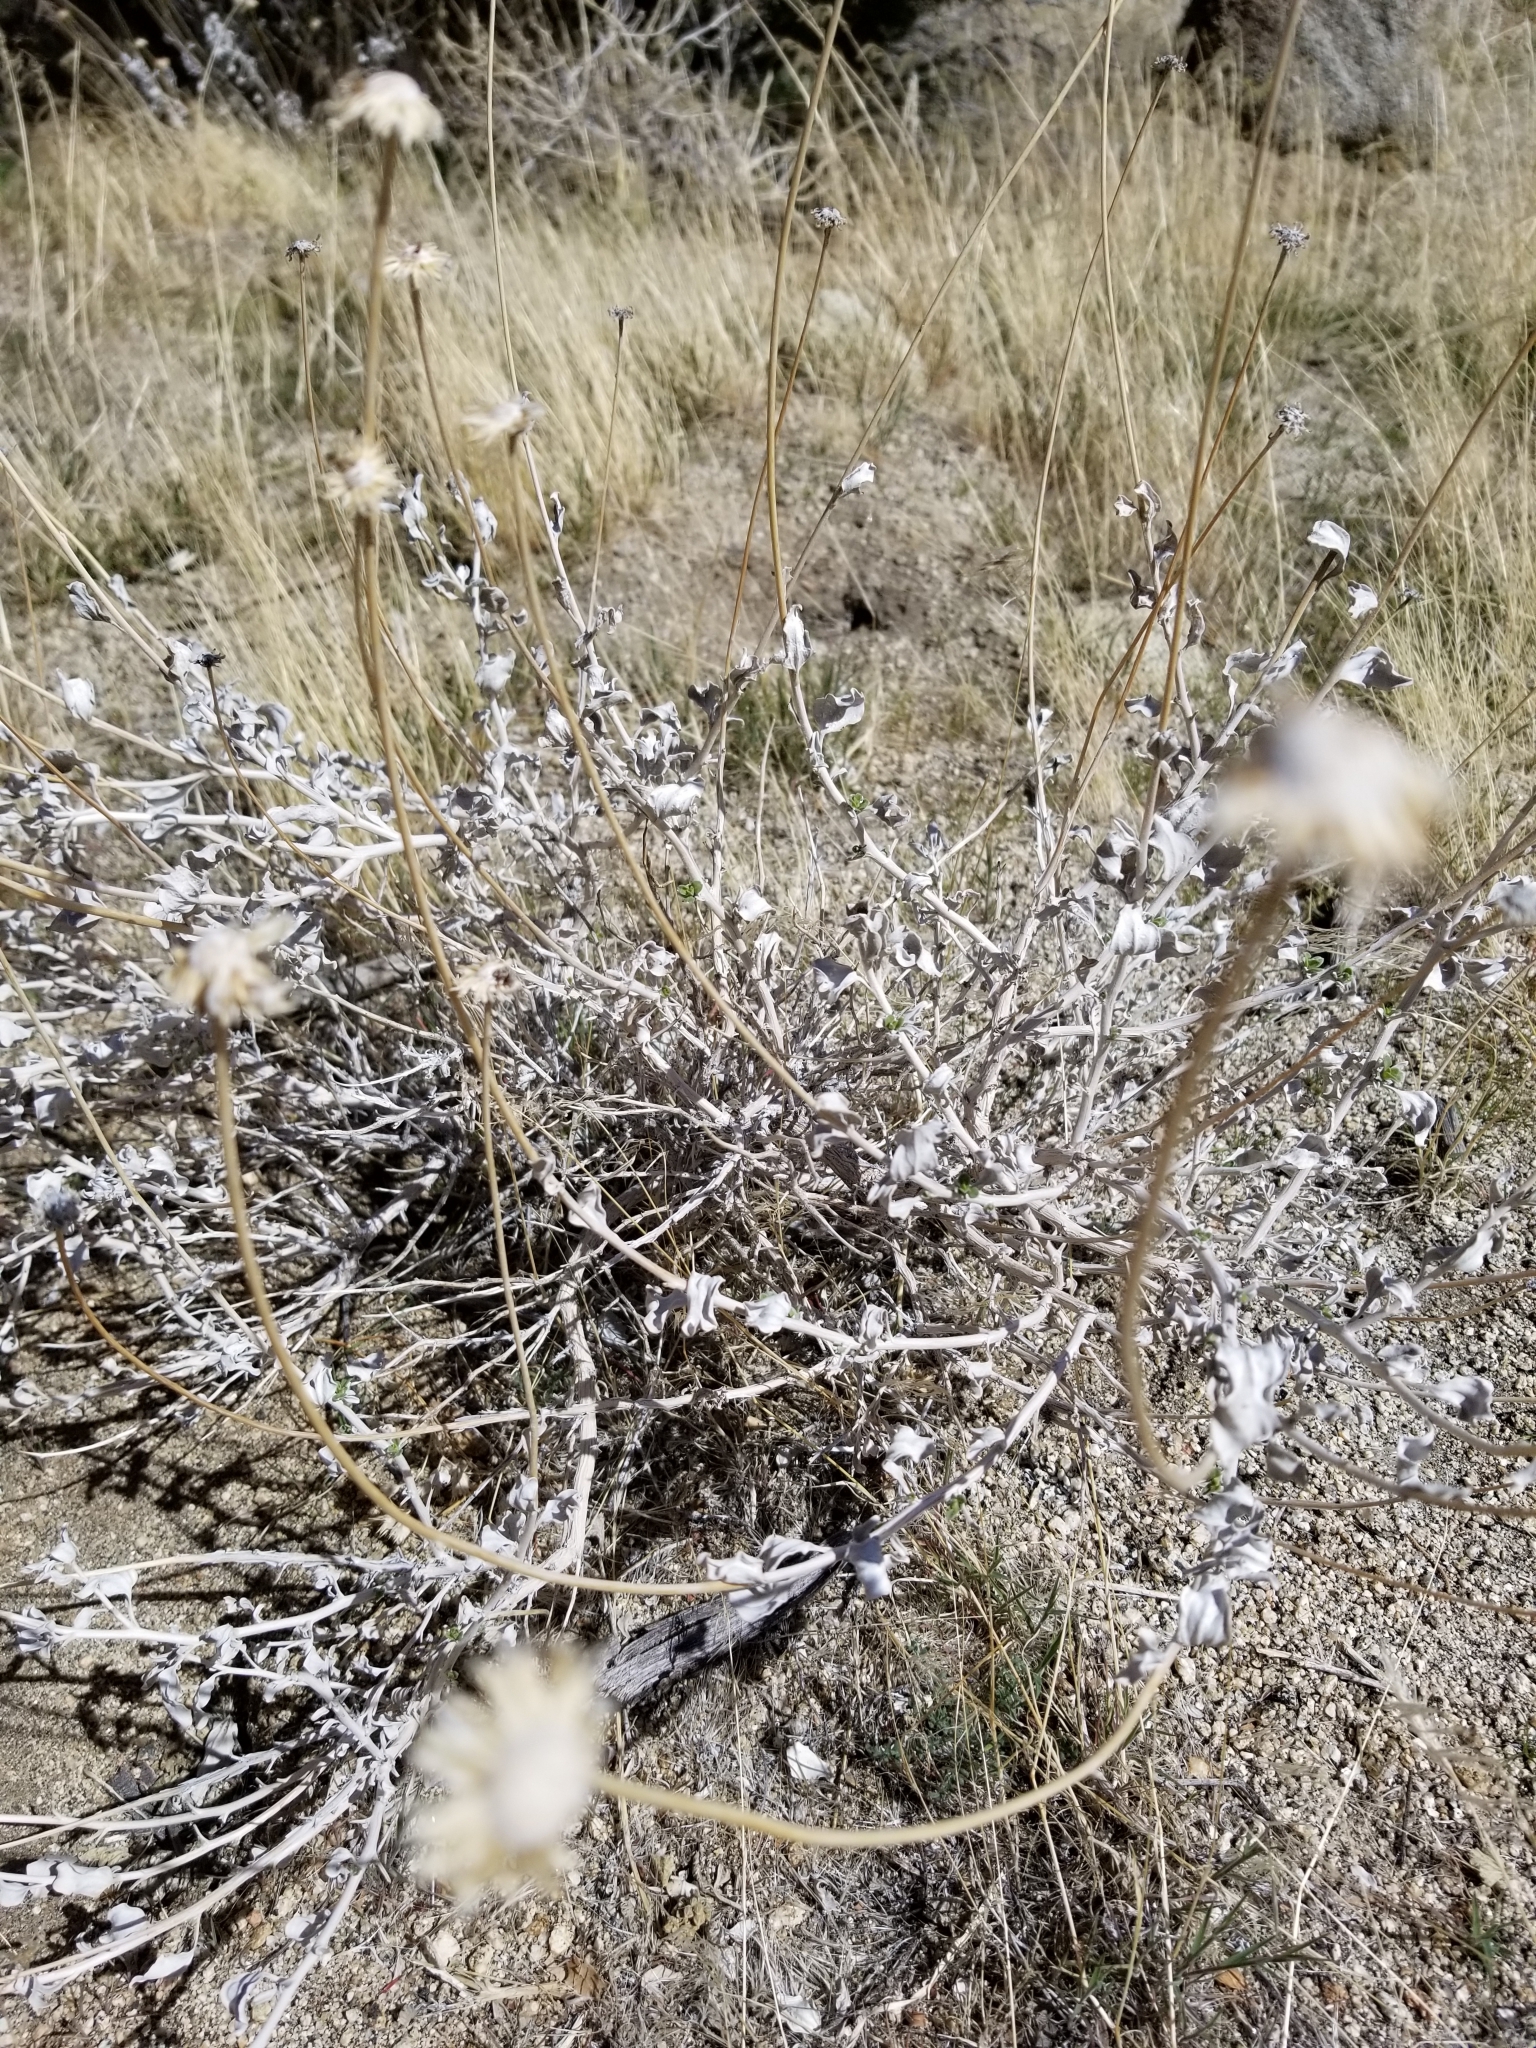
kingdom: Plantae
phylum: Tracheophyta
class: Magnoliopsida
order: Asterales
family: Asteraceae
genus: Encelia
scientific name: Encelia actoni
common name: Acton encelia
